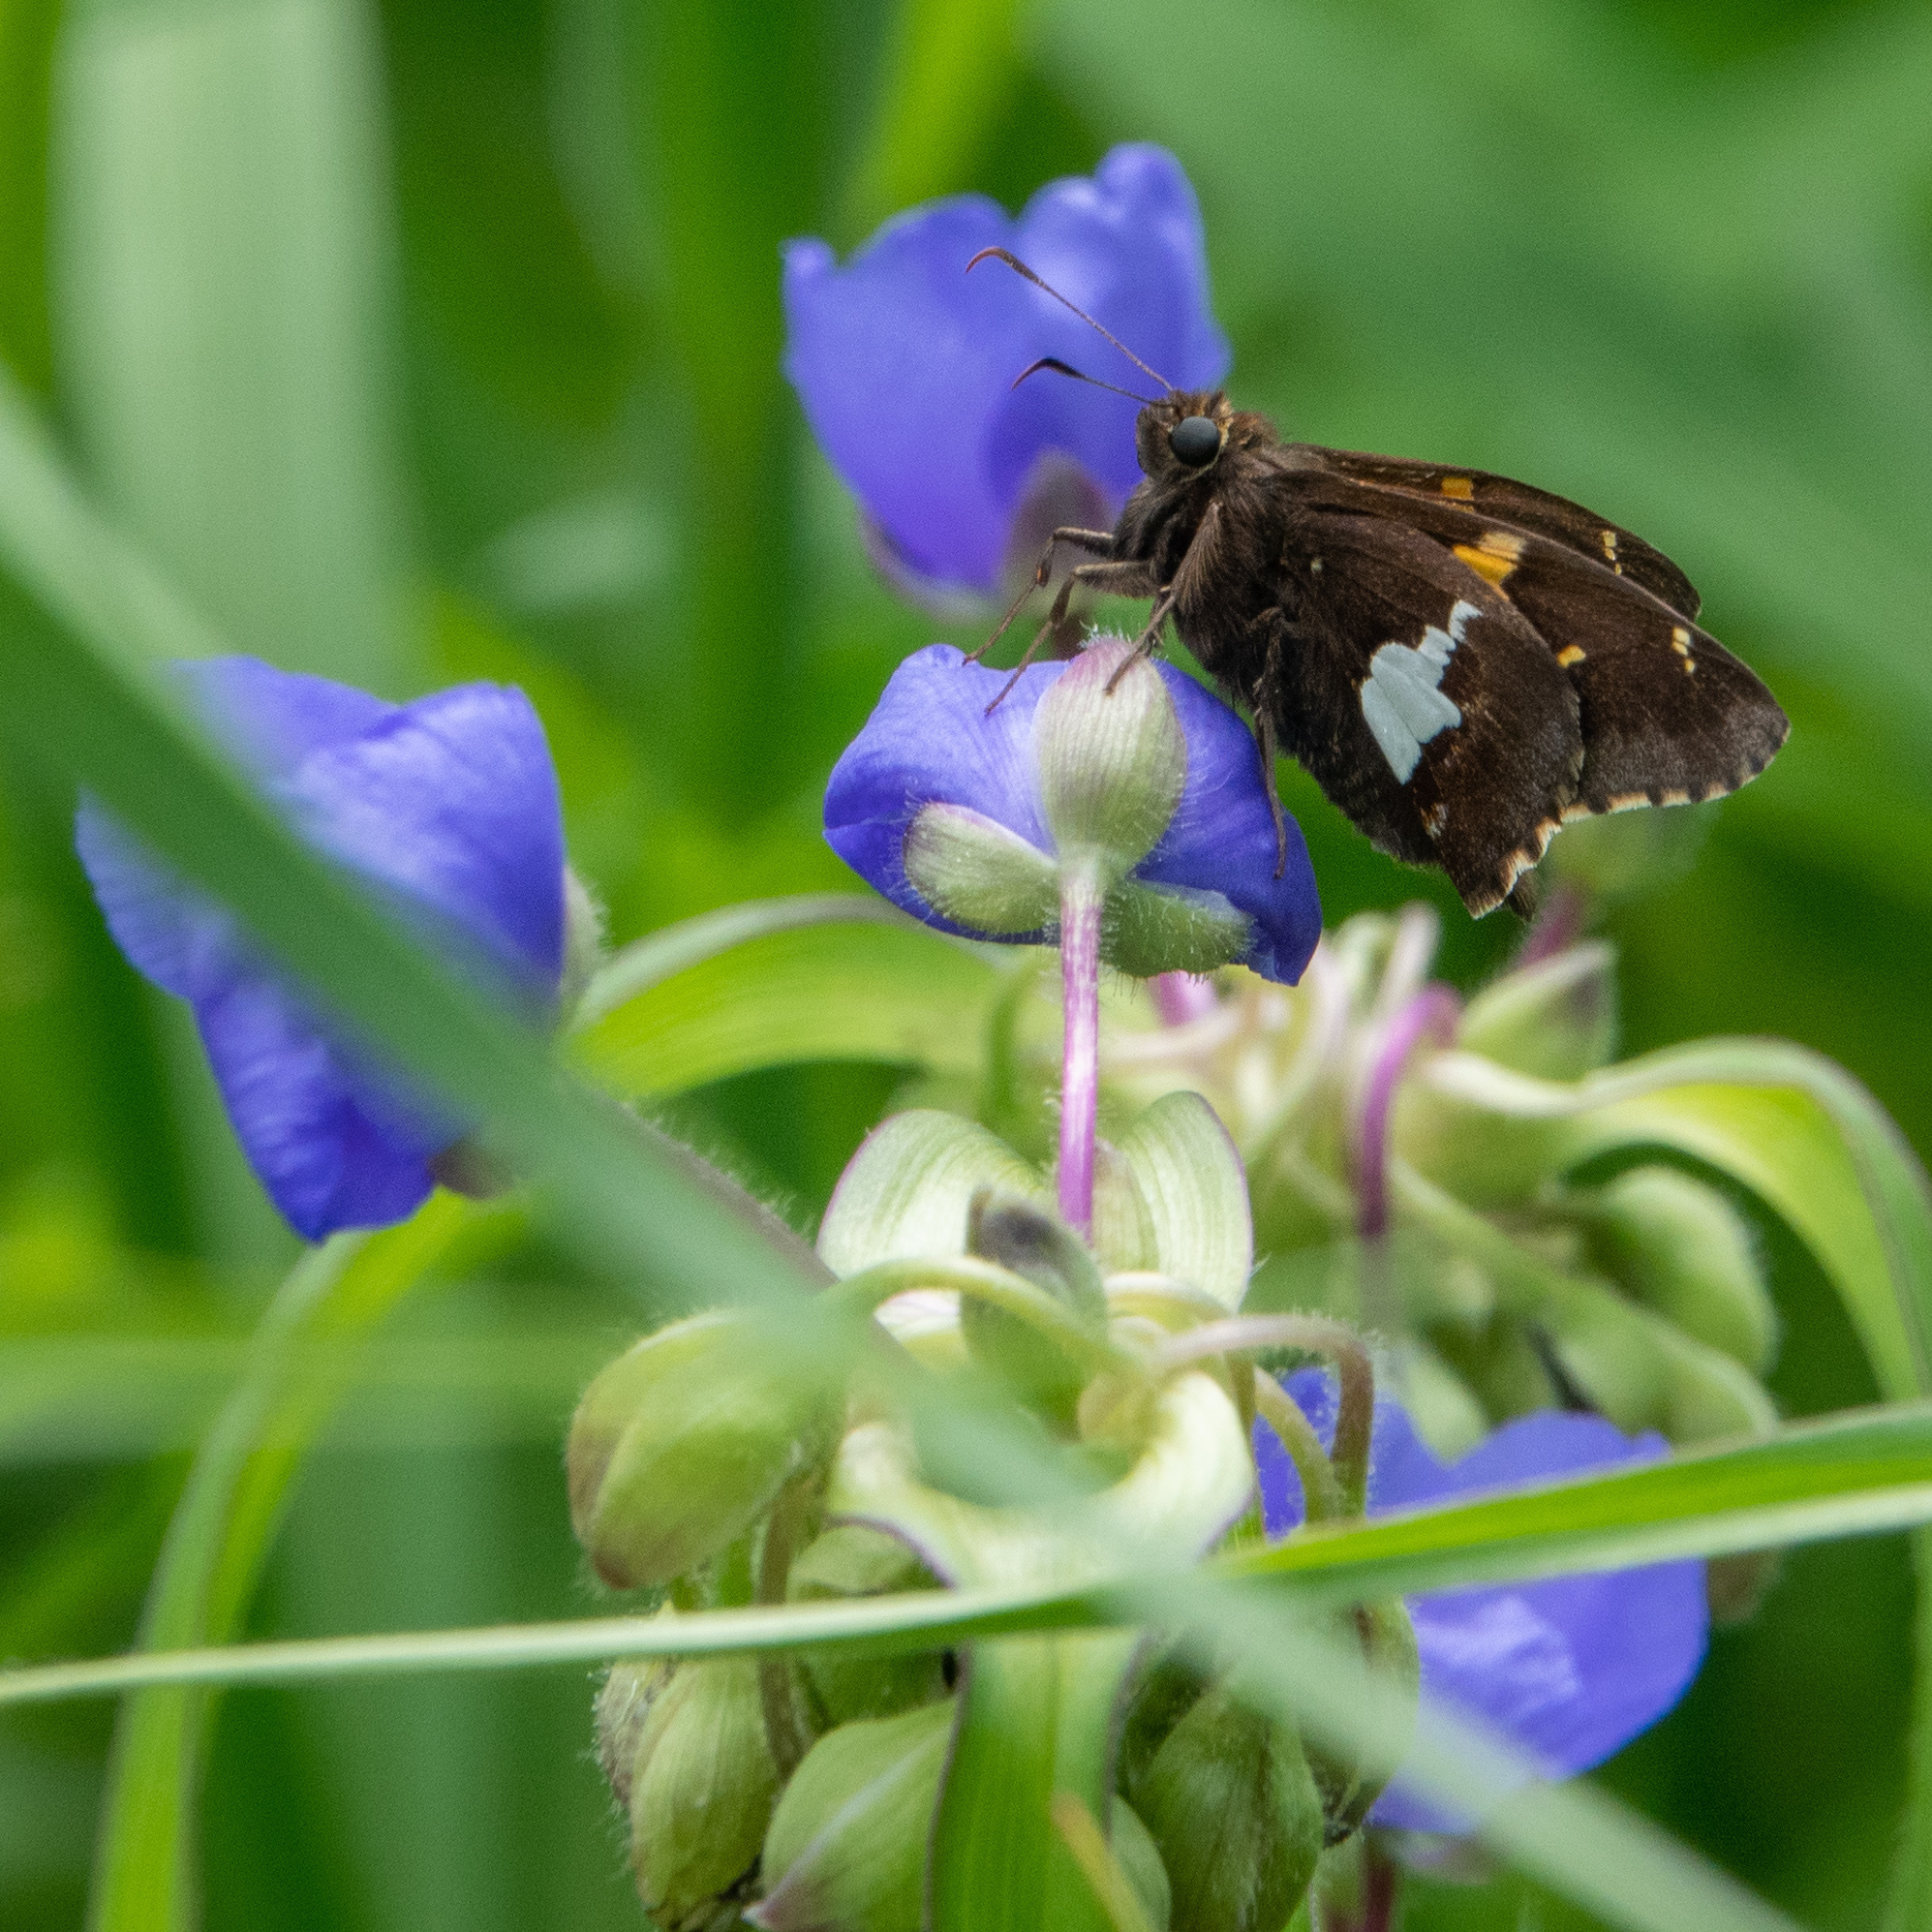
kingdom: Animalia
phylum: Arthropoda
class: Insecta
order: Lepidoptera
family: Hesperiidae
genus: Epargyreus
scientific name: Epargyreus clarus
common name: Silver-spotted skipper
